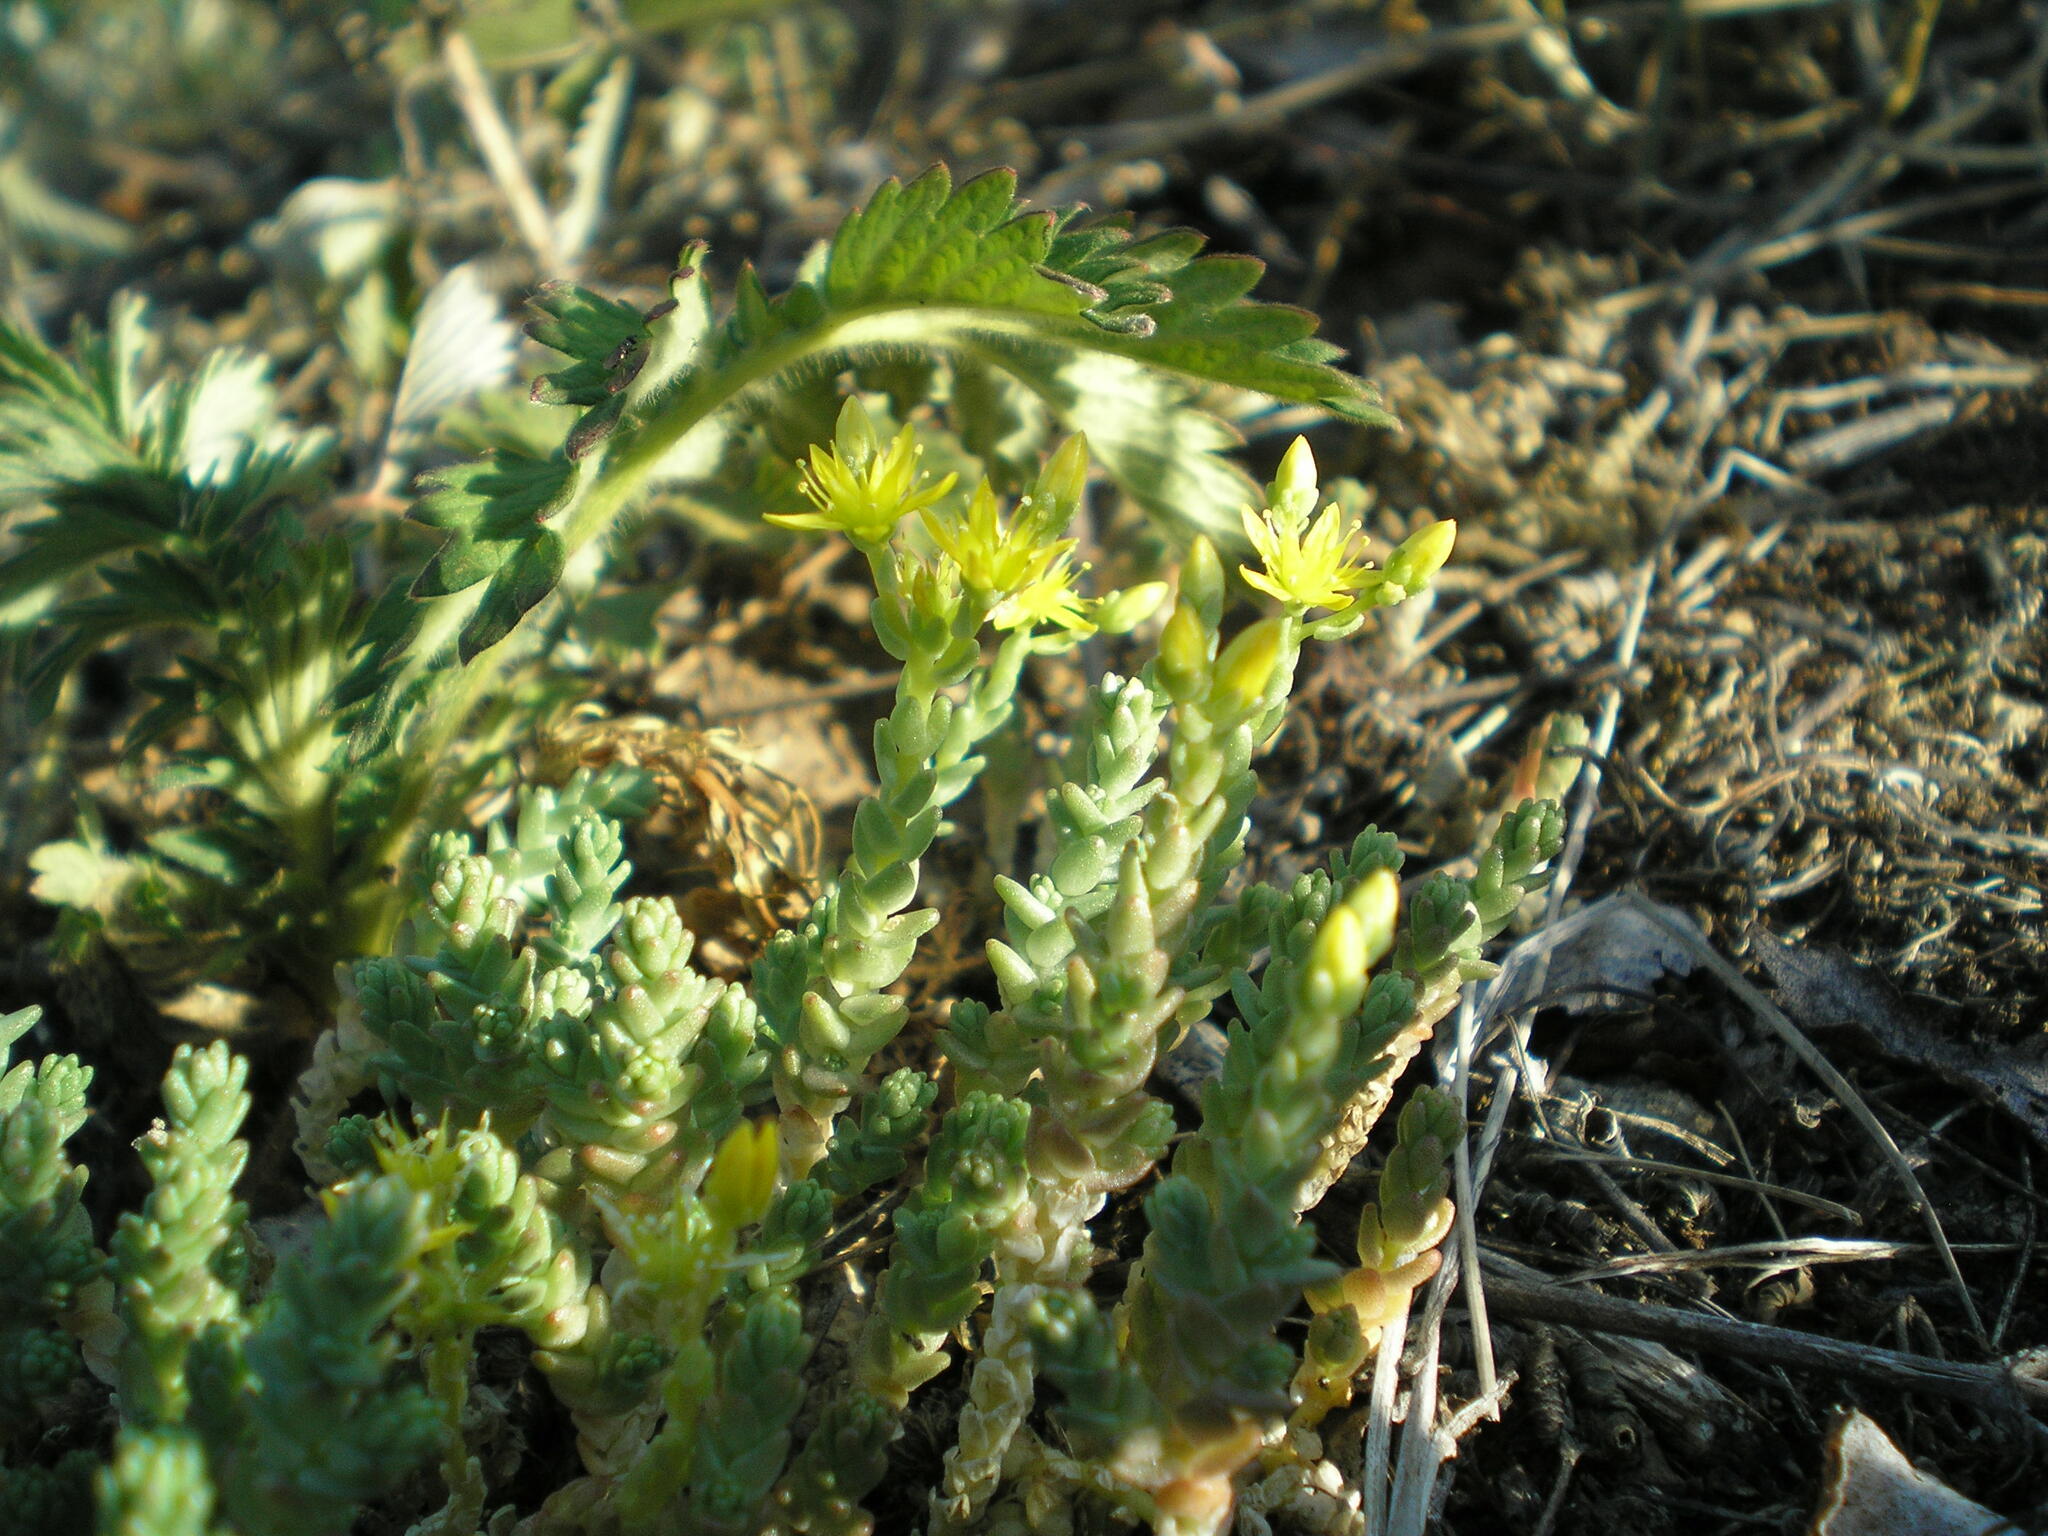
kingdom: Plantae
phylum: Tracheophyta
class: Magnoliopsida
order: Saxifragales
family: Crassulaceae
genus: Sedum
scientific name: Sedum acre
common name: Biting stonecrop
